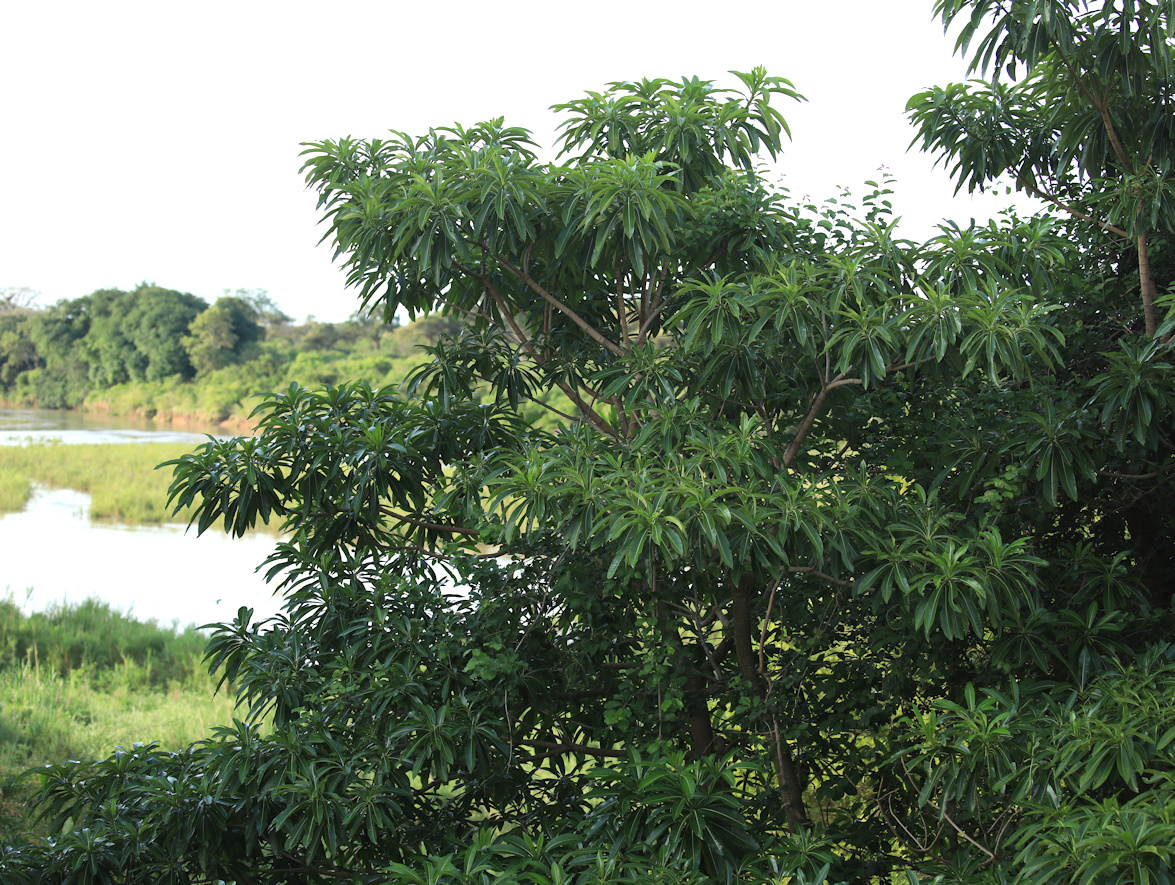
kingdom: Plantae
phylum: Tracheophyta
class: Magnoliopsida
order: Gentianales
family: Apocynaceae
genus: Rauvolfia
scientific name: Rauvolfia caffra
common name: Quininetree
